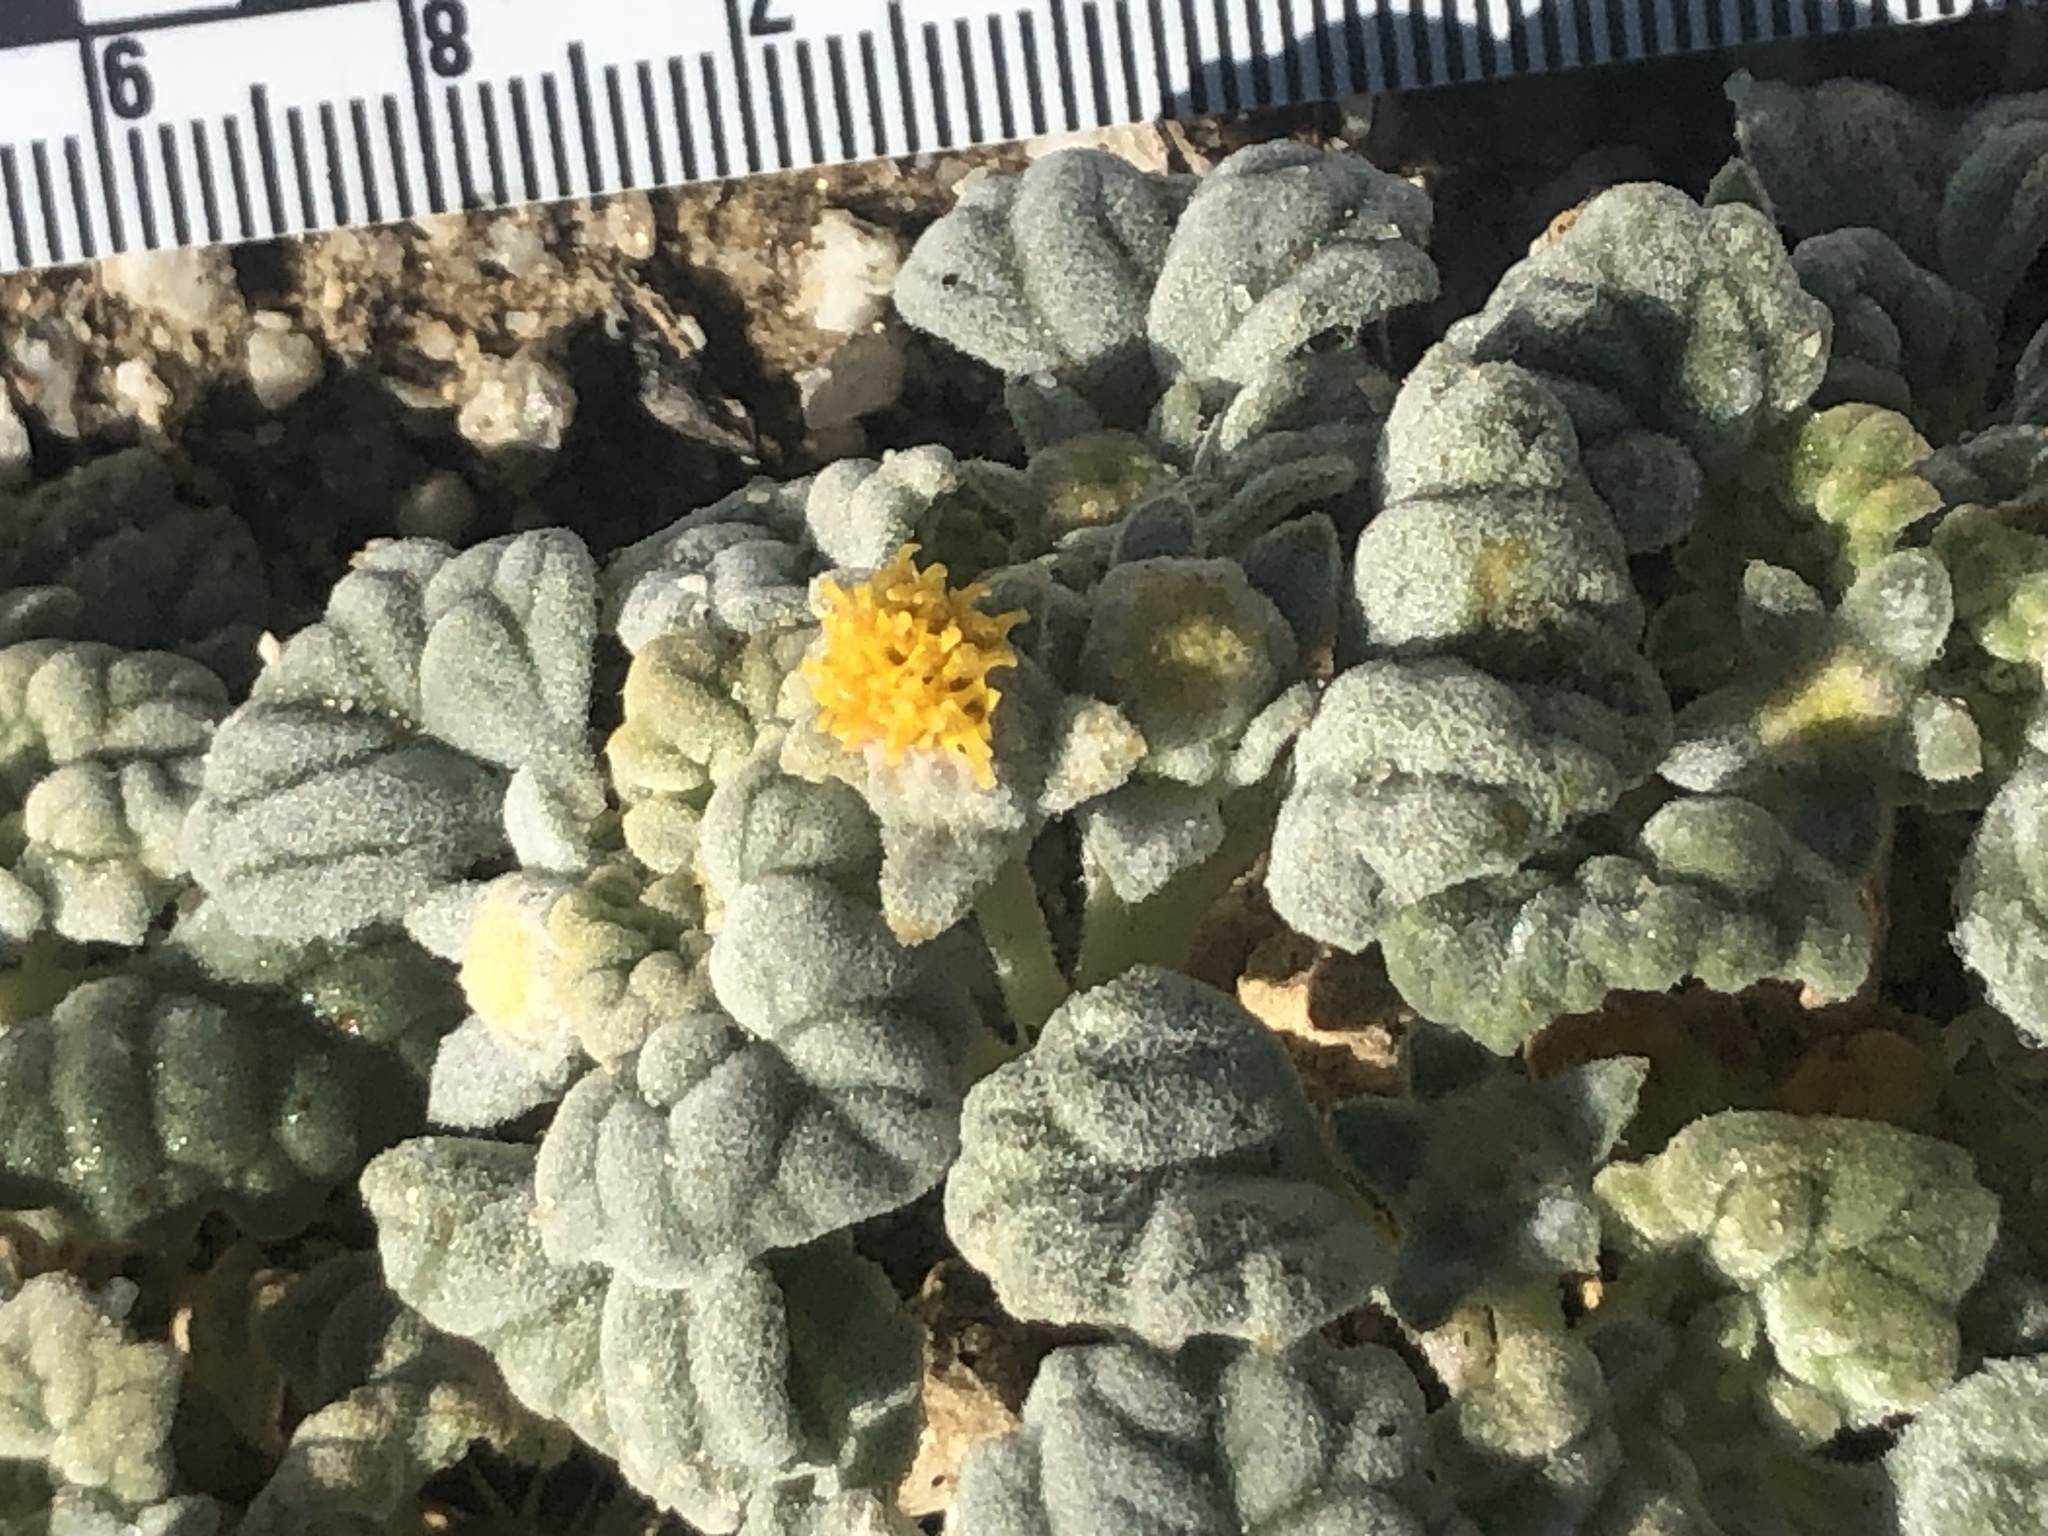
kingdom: Plantae
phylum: Tracheophyta
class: Magnoliopsida
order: Asterales
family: Asteraceae
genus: Psathyrotes
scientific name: Psathyrotes ramosissima
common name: Turtleback
